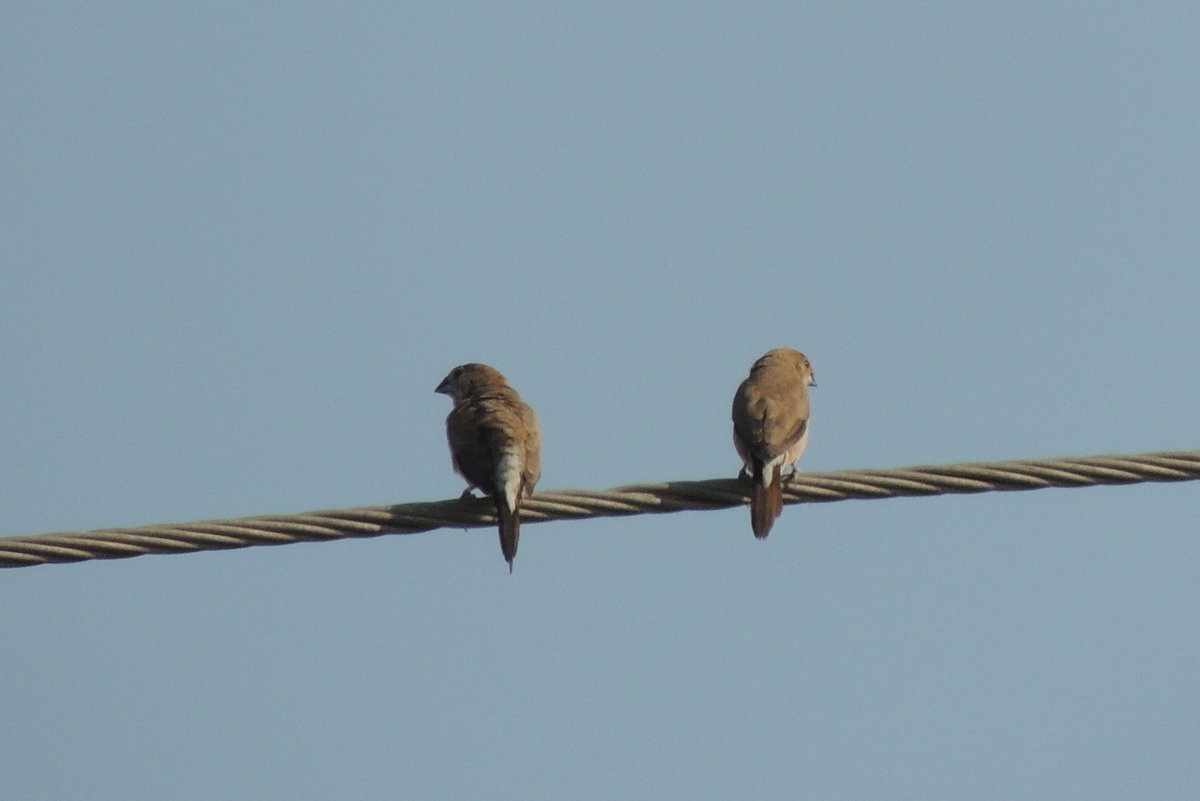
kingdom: Animalia
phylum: Chordata
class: Aves
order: Passeriformes
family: Estrildidae
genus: Euodice
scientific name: Euodice malabarica
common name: Indian silverbill
